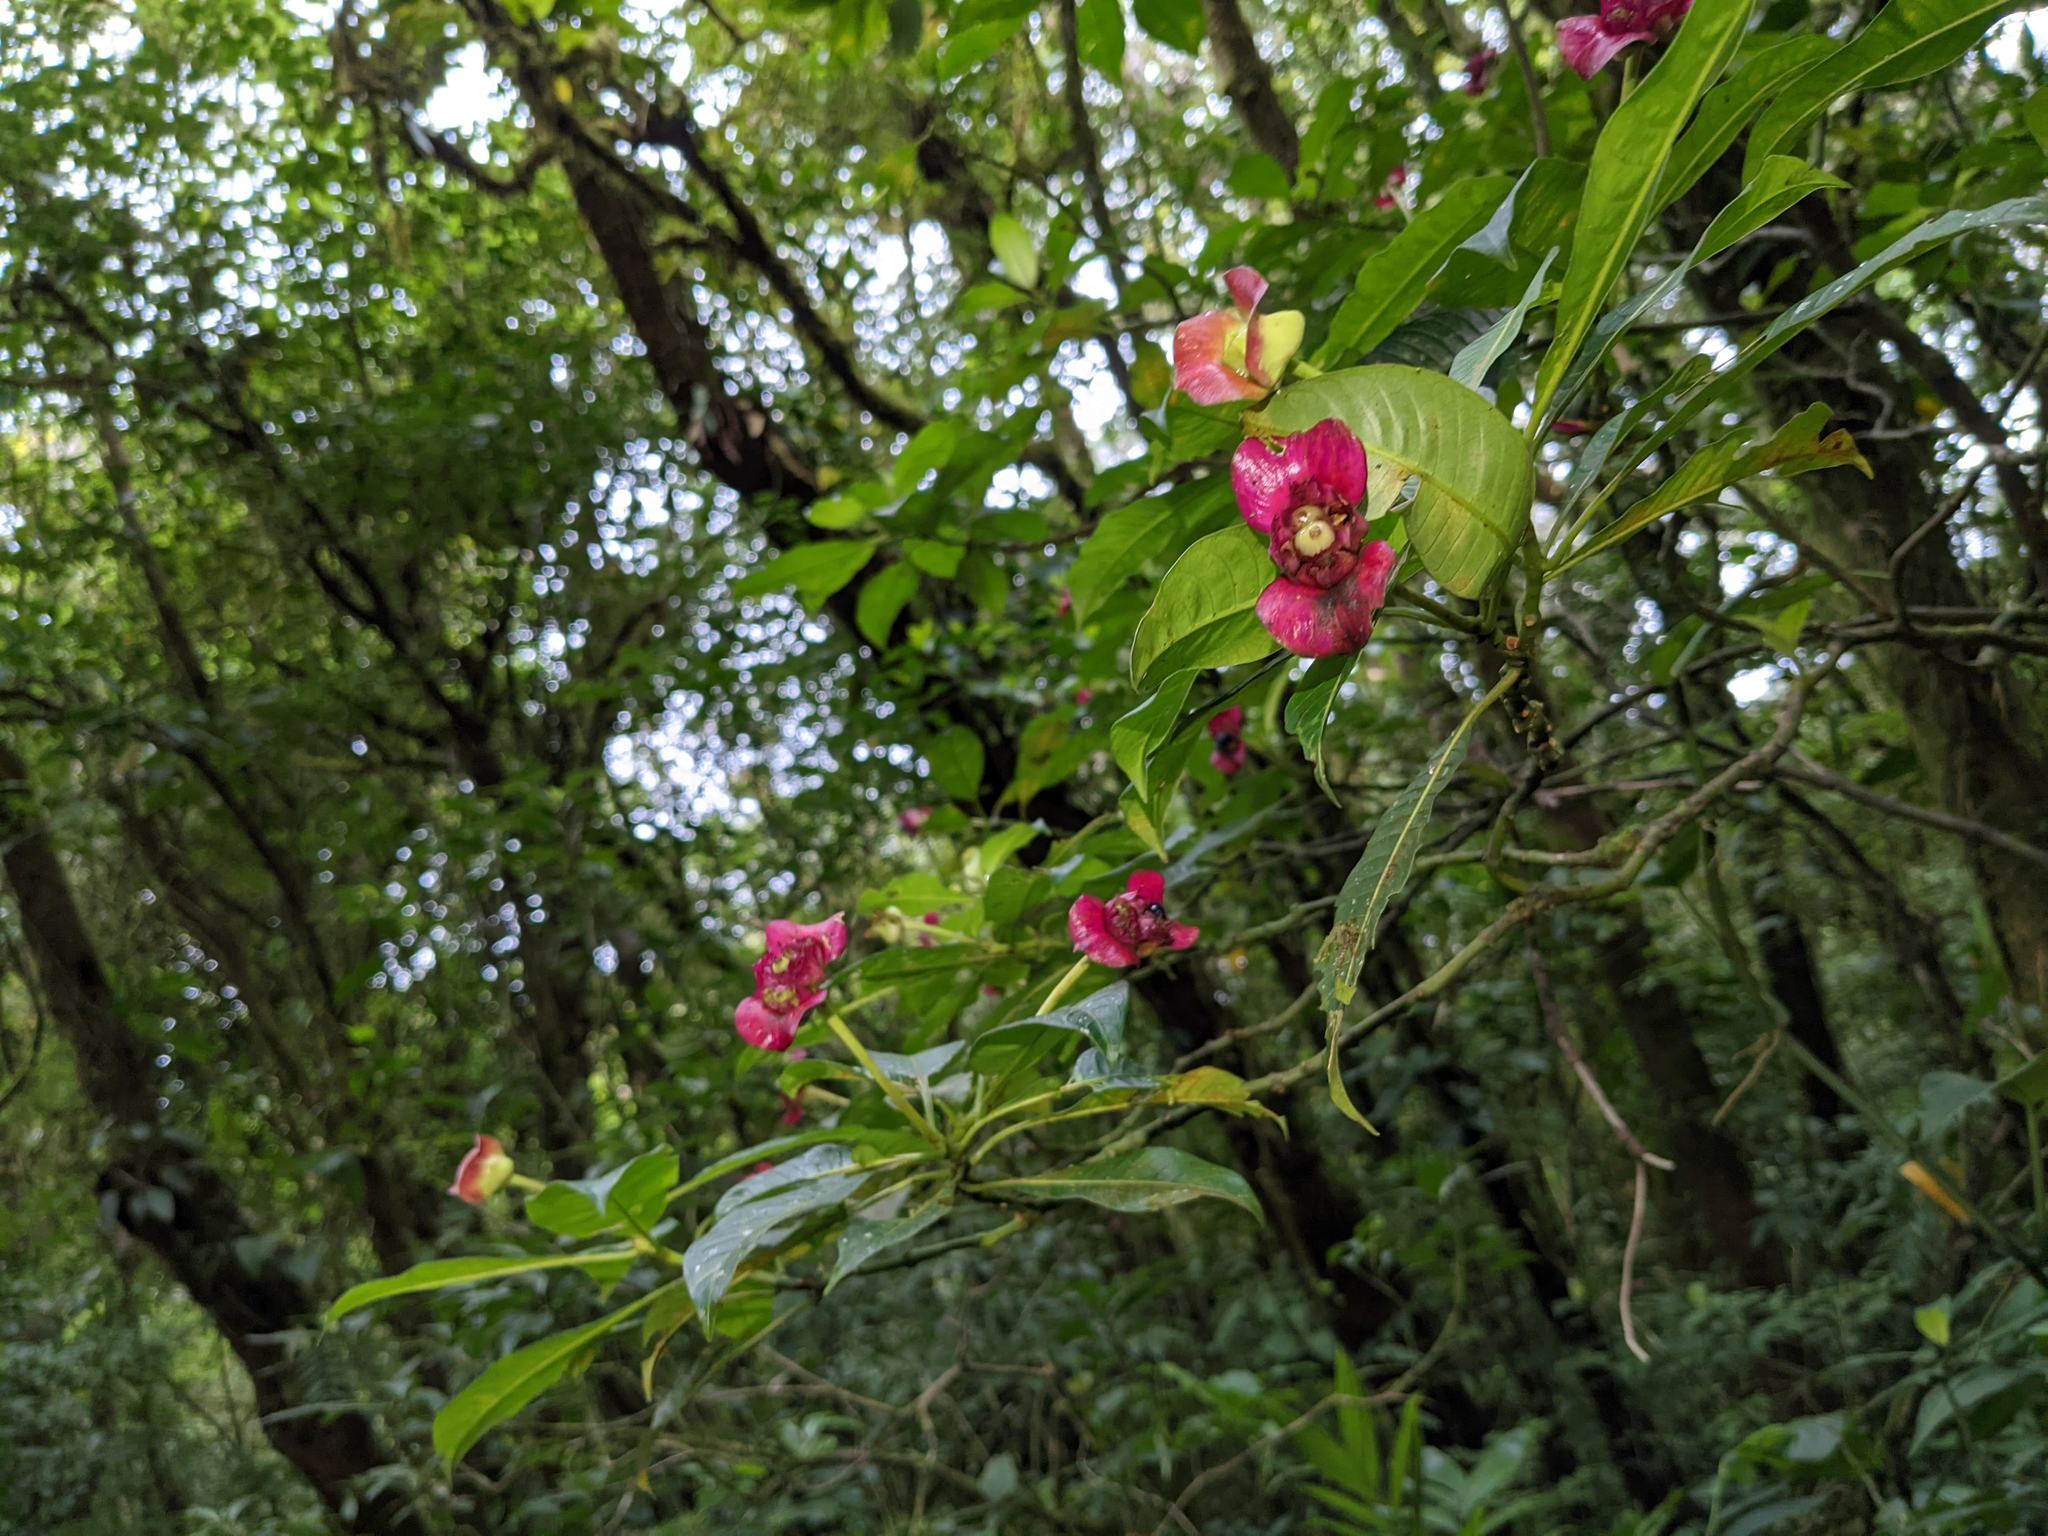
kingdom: Plantae
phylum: Tracheophyta
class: Magnoliopsida
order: Gentianales
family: Rubiaceae
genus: Palicourea
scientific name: Palicourea elata
